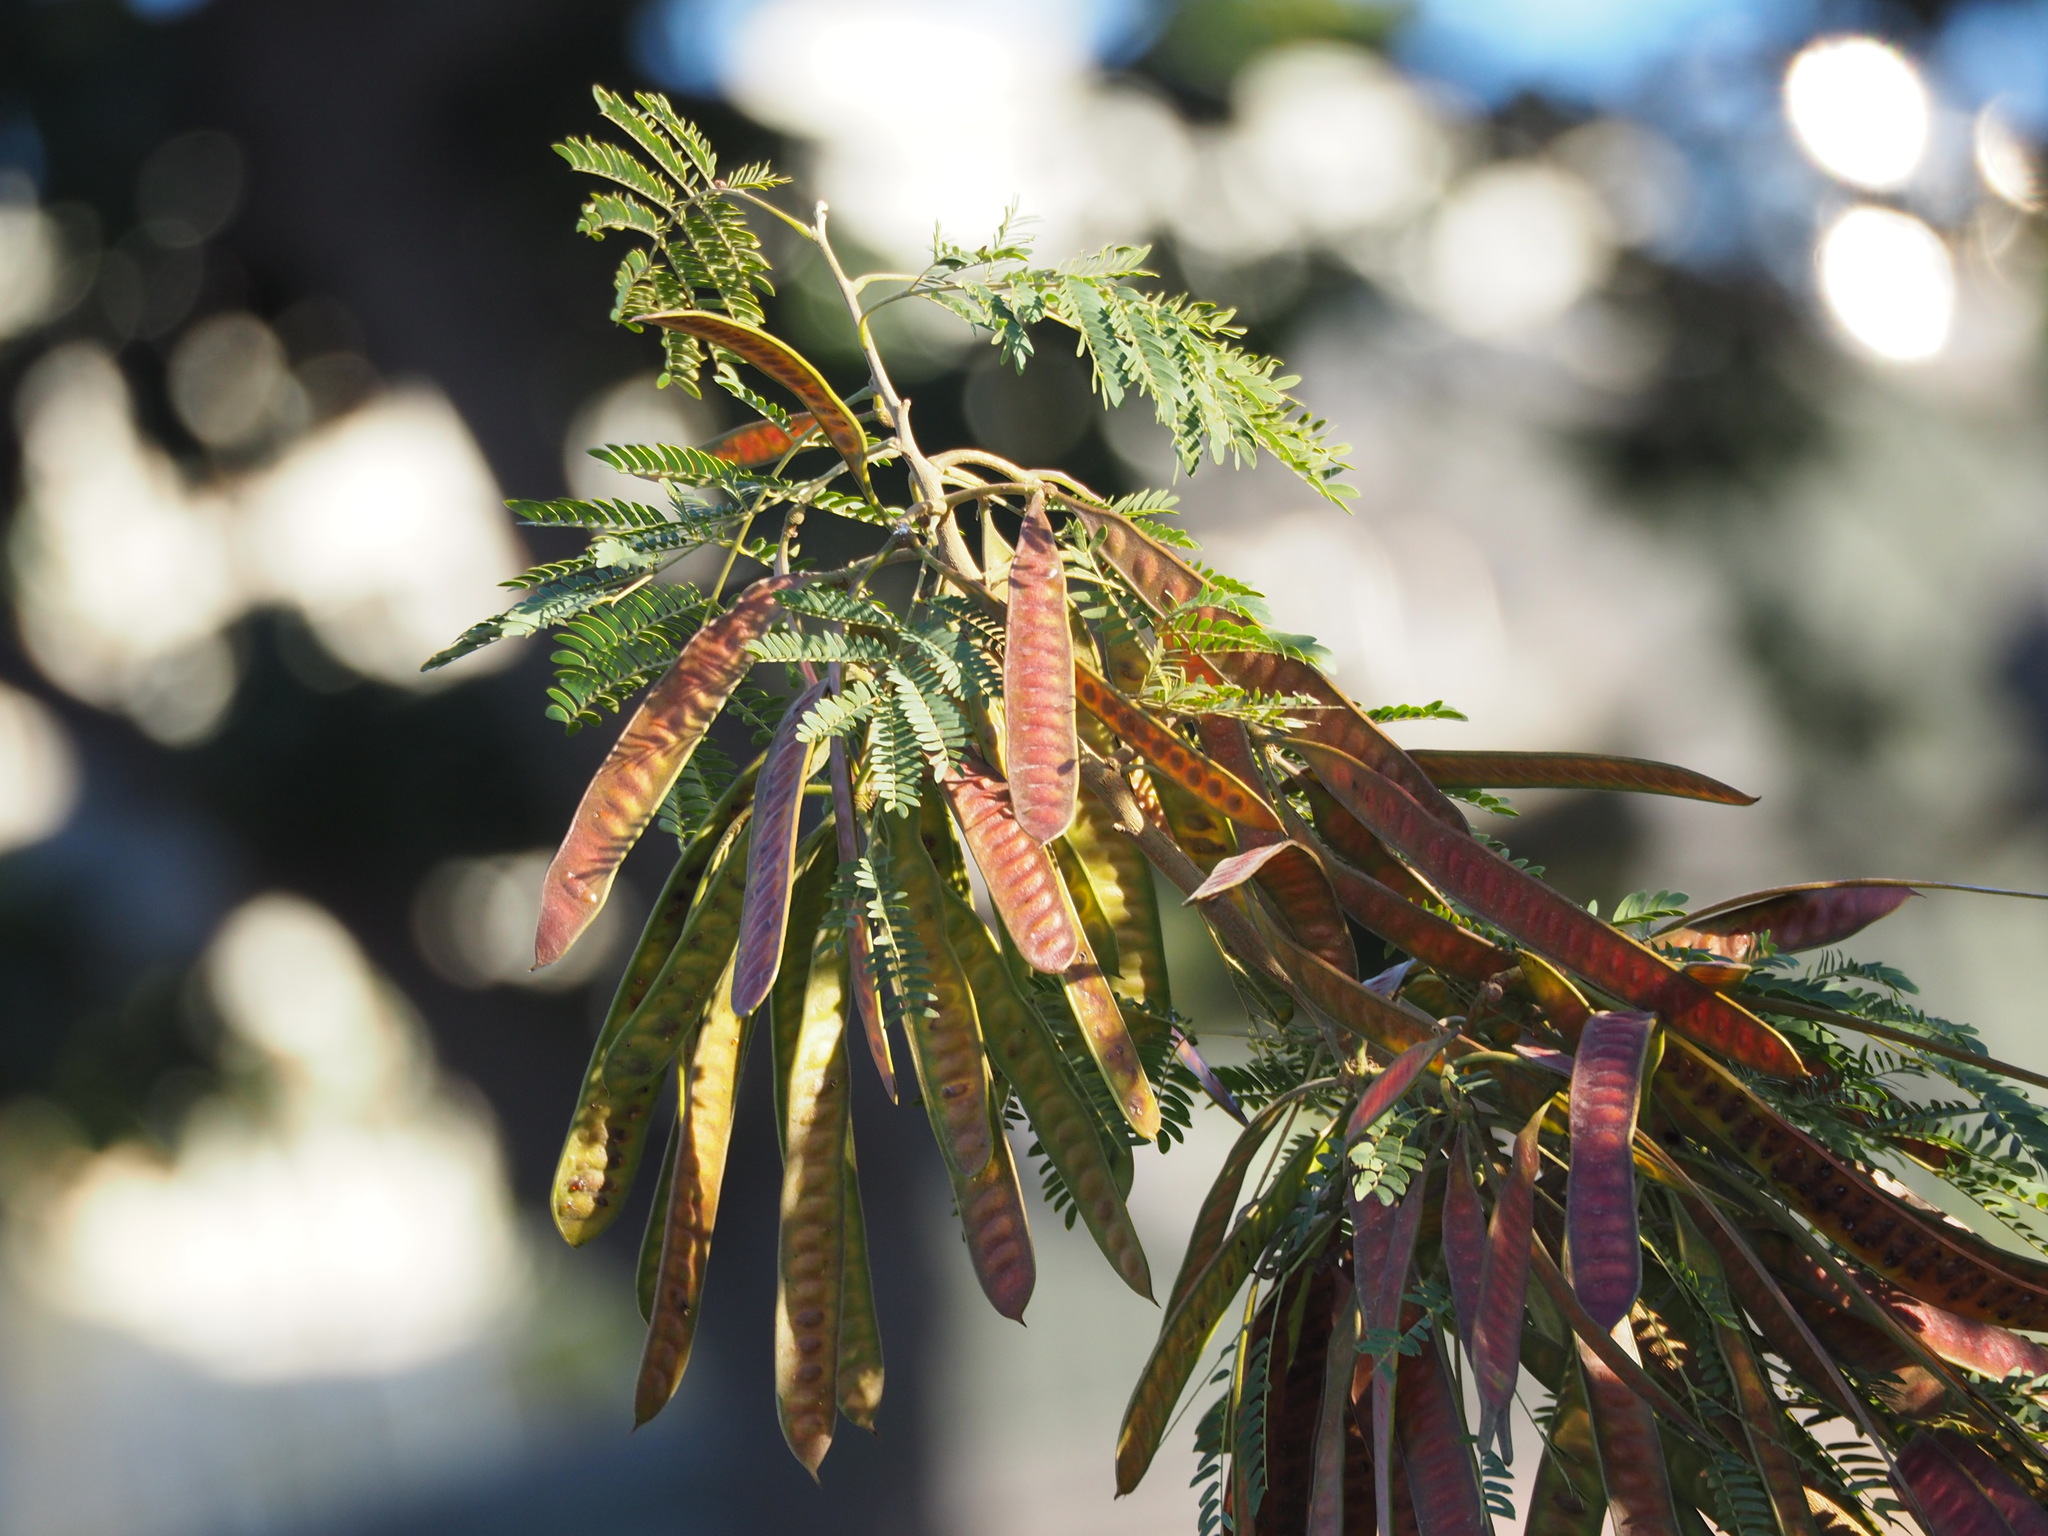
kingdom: Plantae
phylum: Tracheophyta
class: Magnoliopsida
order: Fabales
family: Fabaceae
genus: Leucaena
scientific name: Leucaena leucocephala
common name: White leadtree
